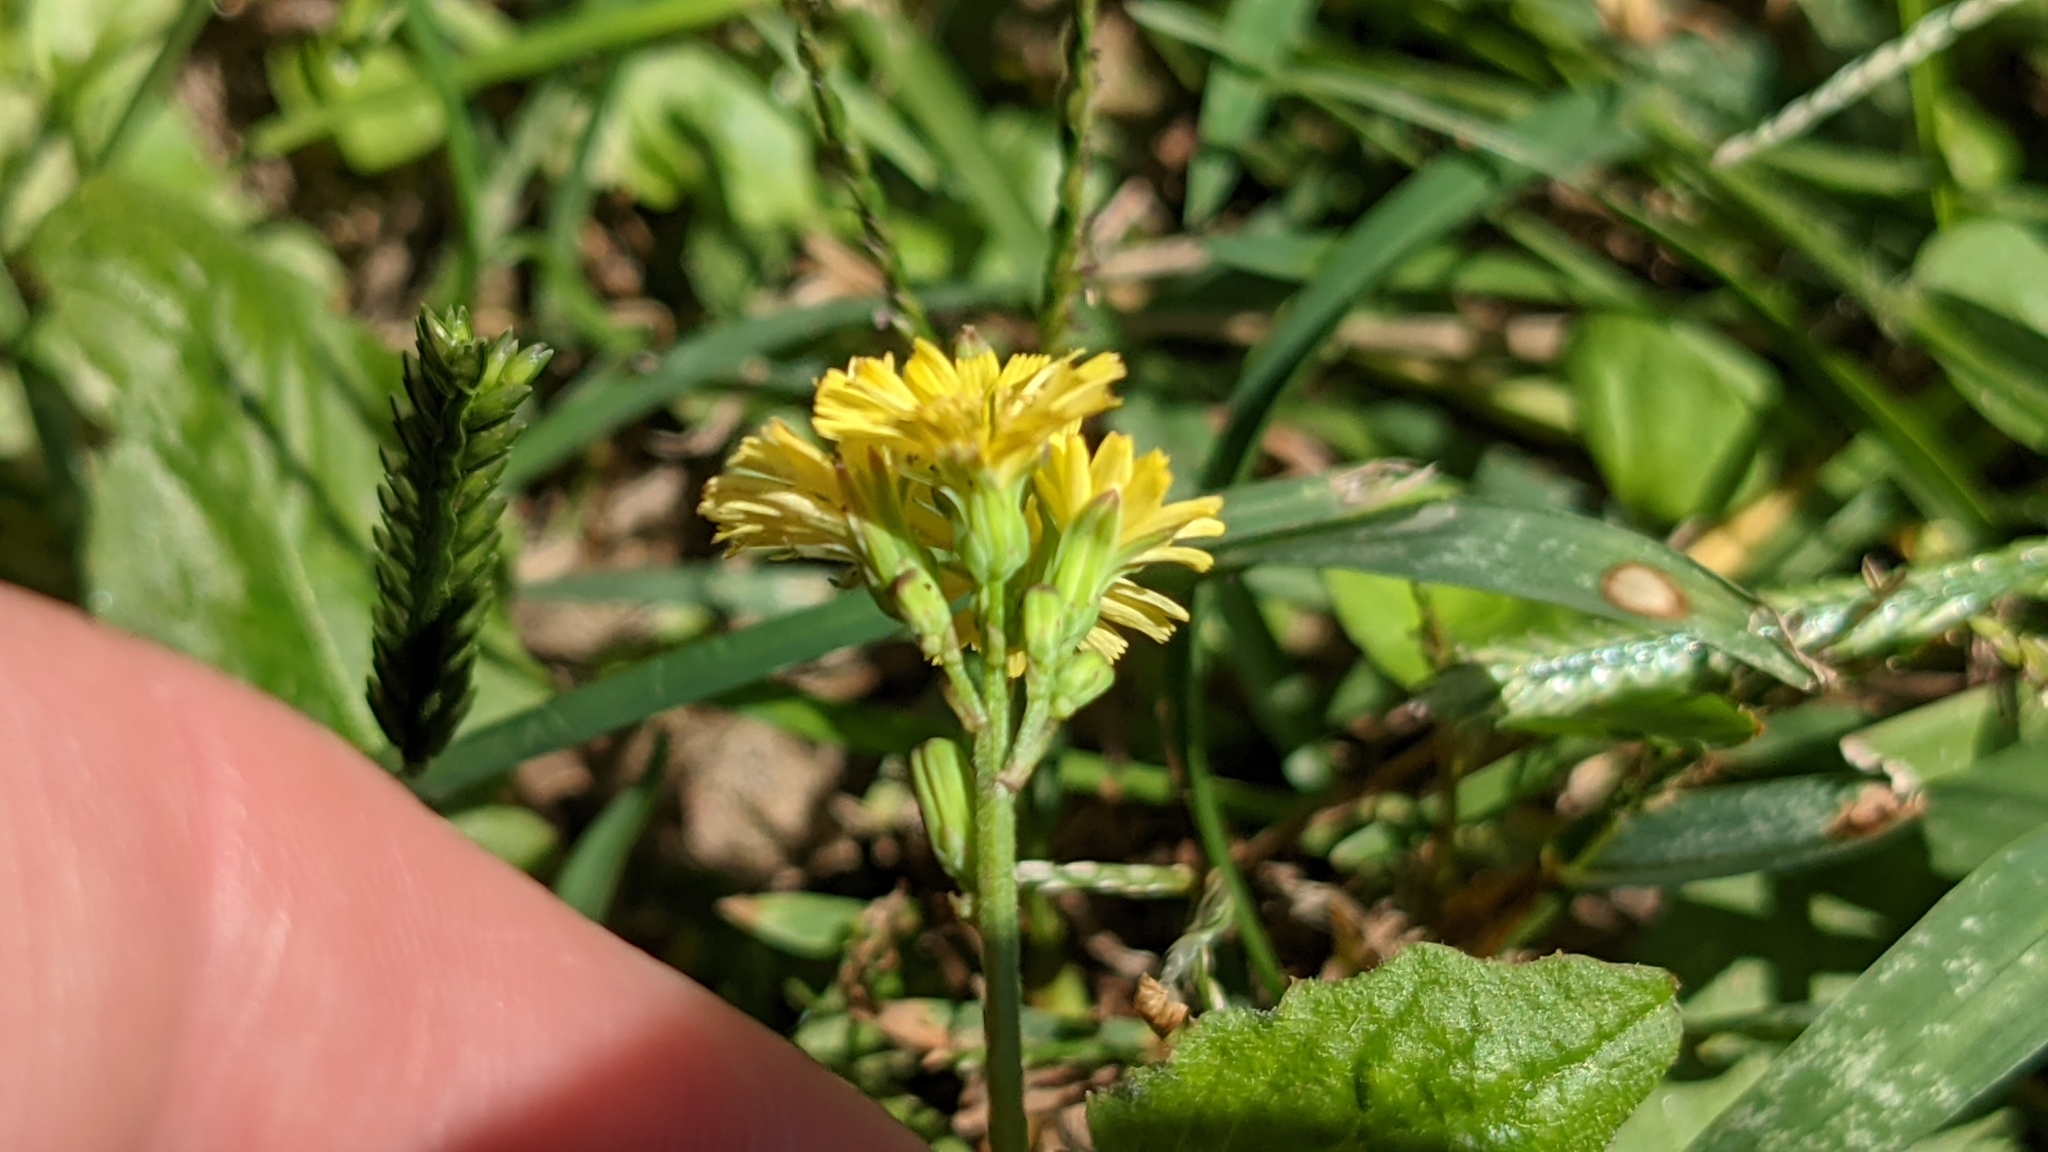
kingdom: Plantae
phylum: Tracheophyta
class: Magnoliopsida
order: Asterales
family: Asteraceae
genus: Youngia
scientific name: Youngia japonica
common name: Oriental false hawksbeard
